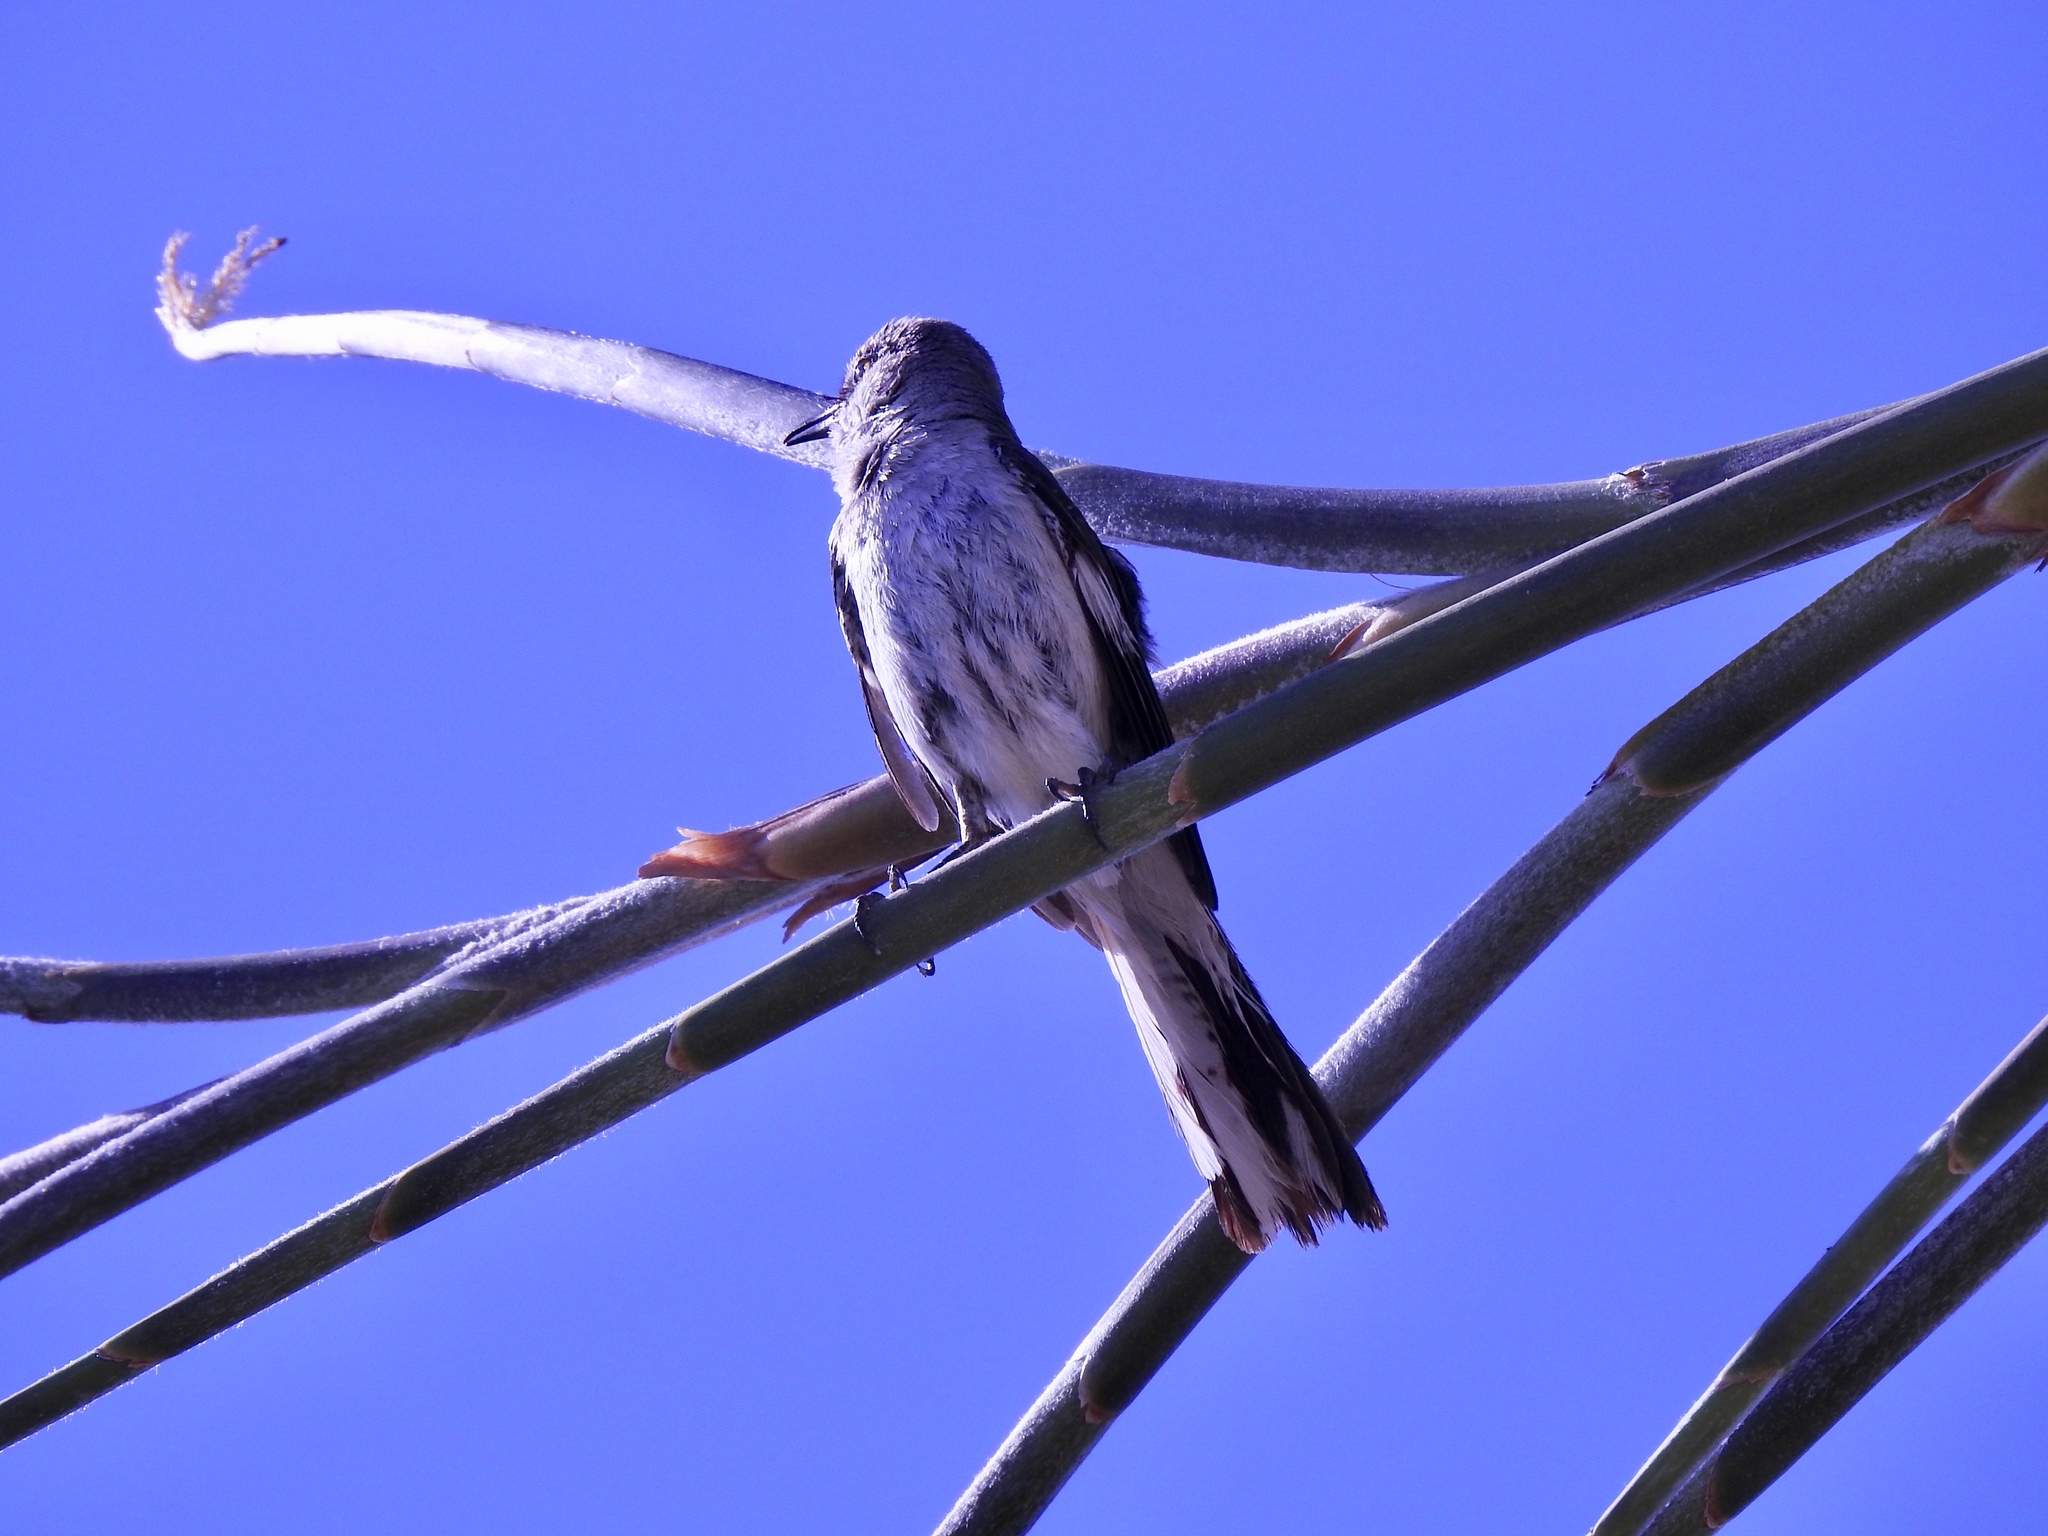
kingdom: Animalia
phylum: Chordata
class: Aves
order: Passeriformes
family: Mimidae
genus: Mimus
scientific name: Mimus polyglottos
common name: Northern mockingbird
